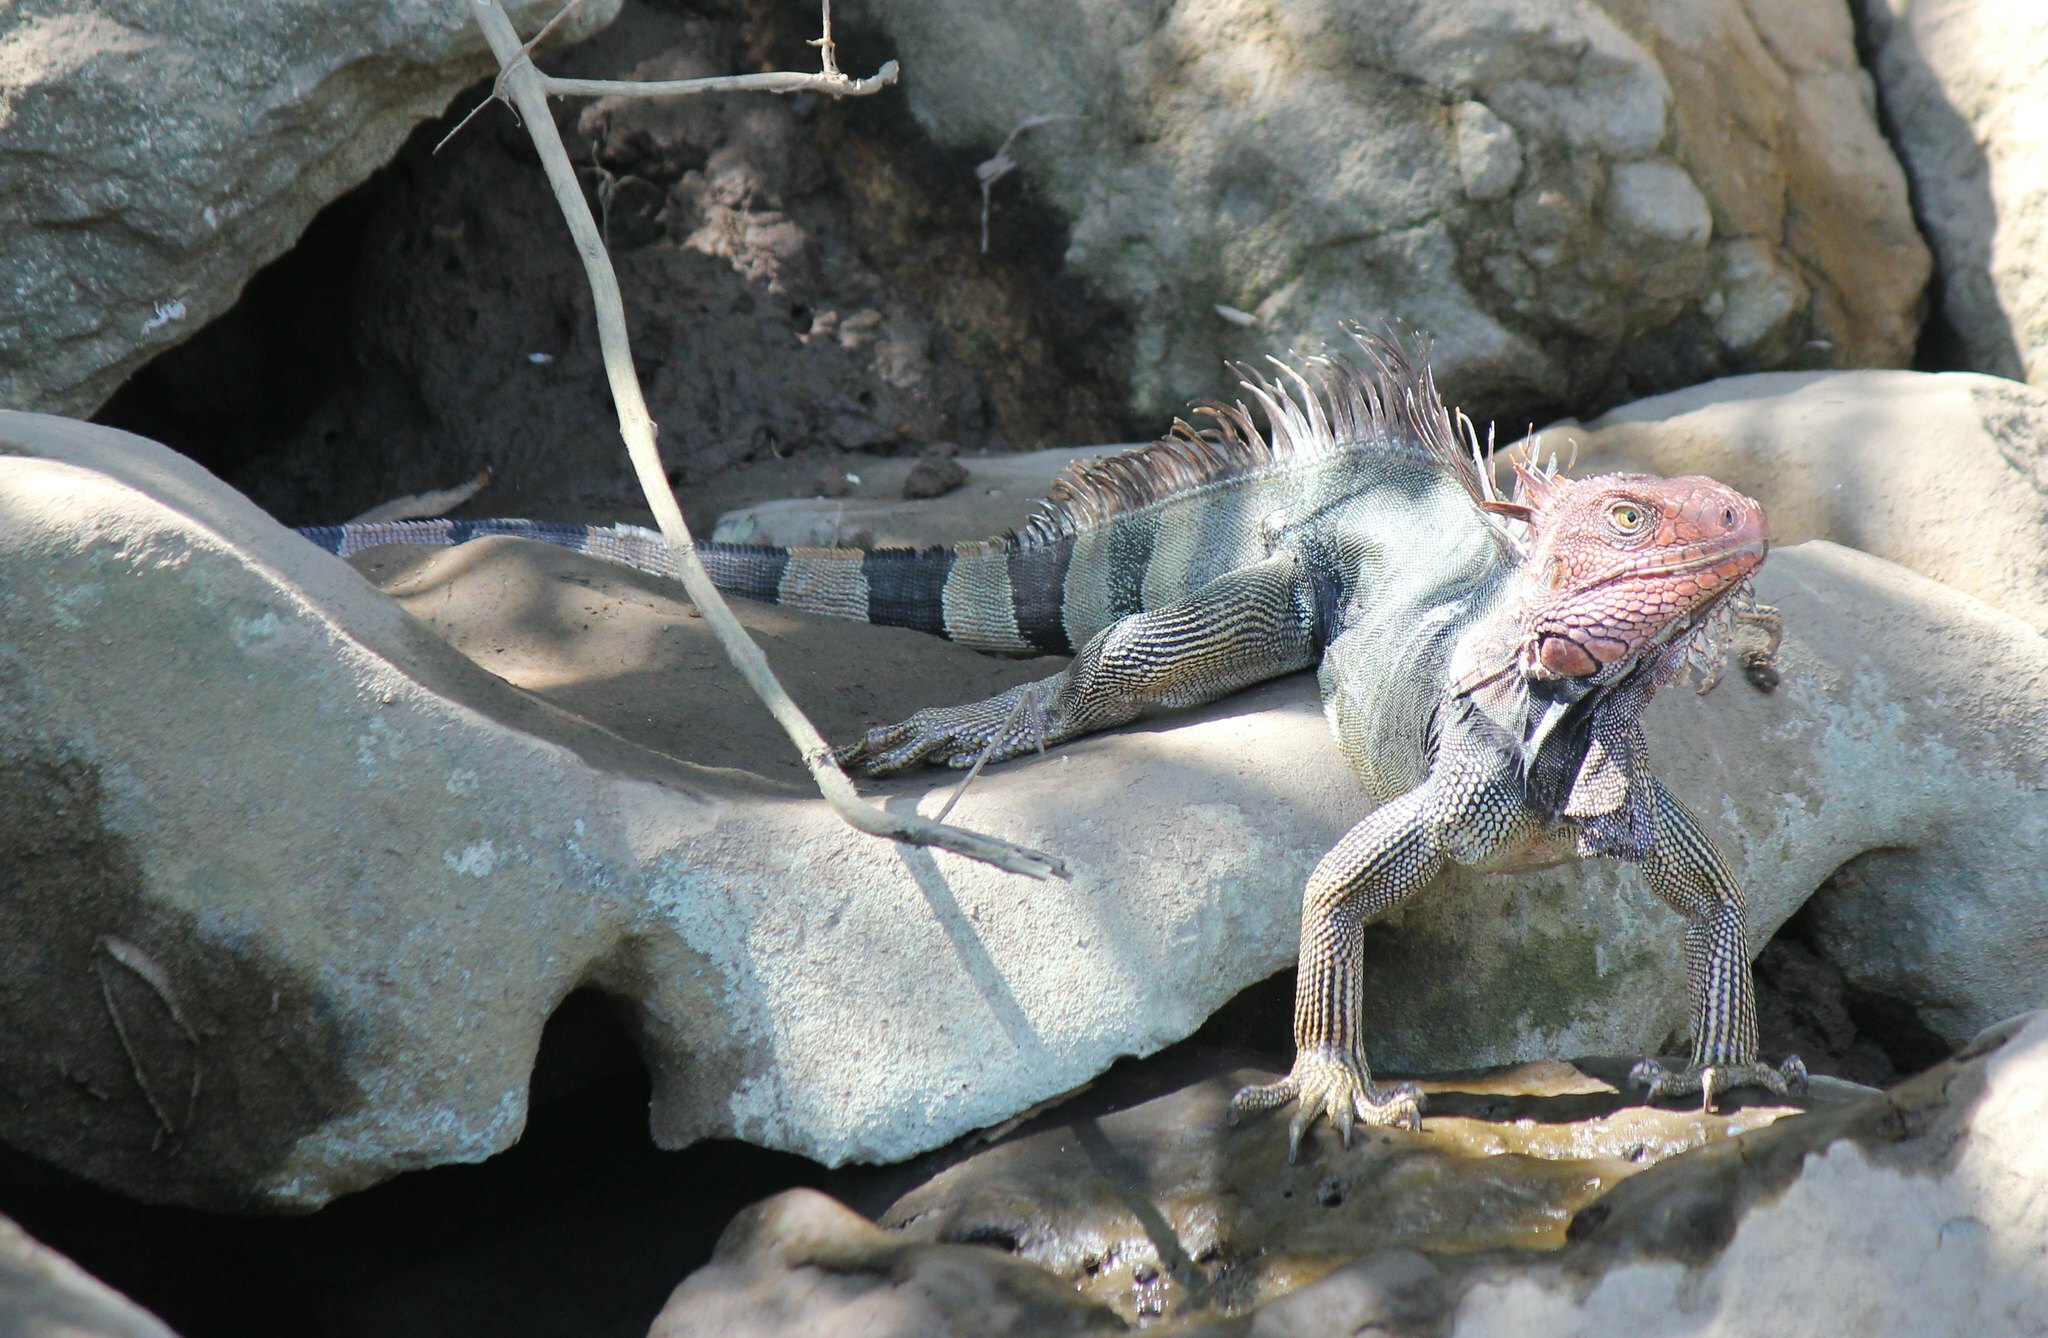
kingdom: Animalia
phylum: Chordata
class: Squamata
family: Iguanidae
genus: Iguana
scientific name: Iguana iguana
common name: Green iguana
